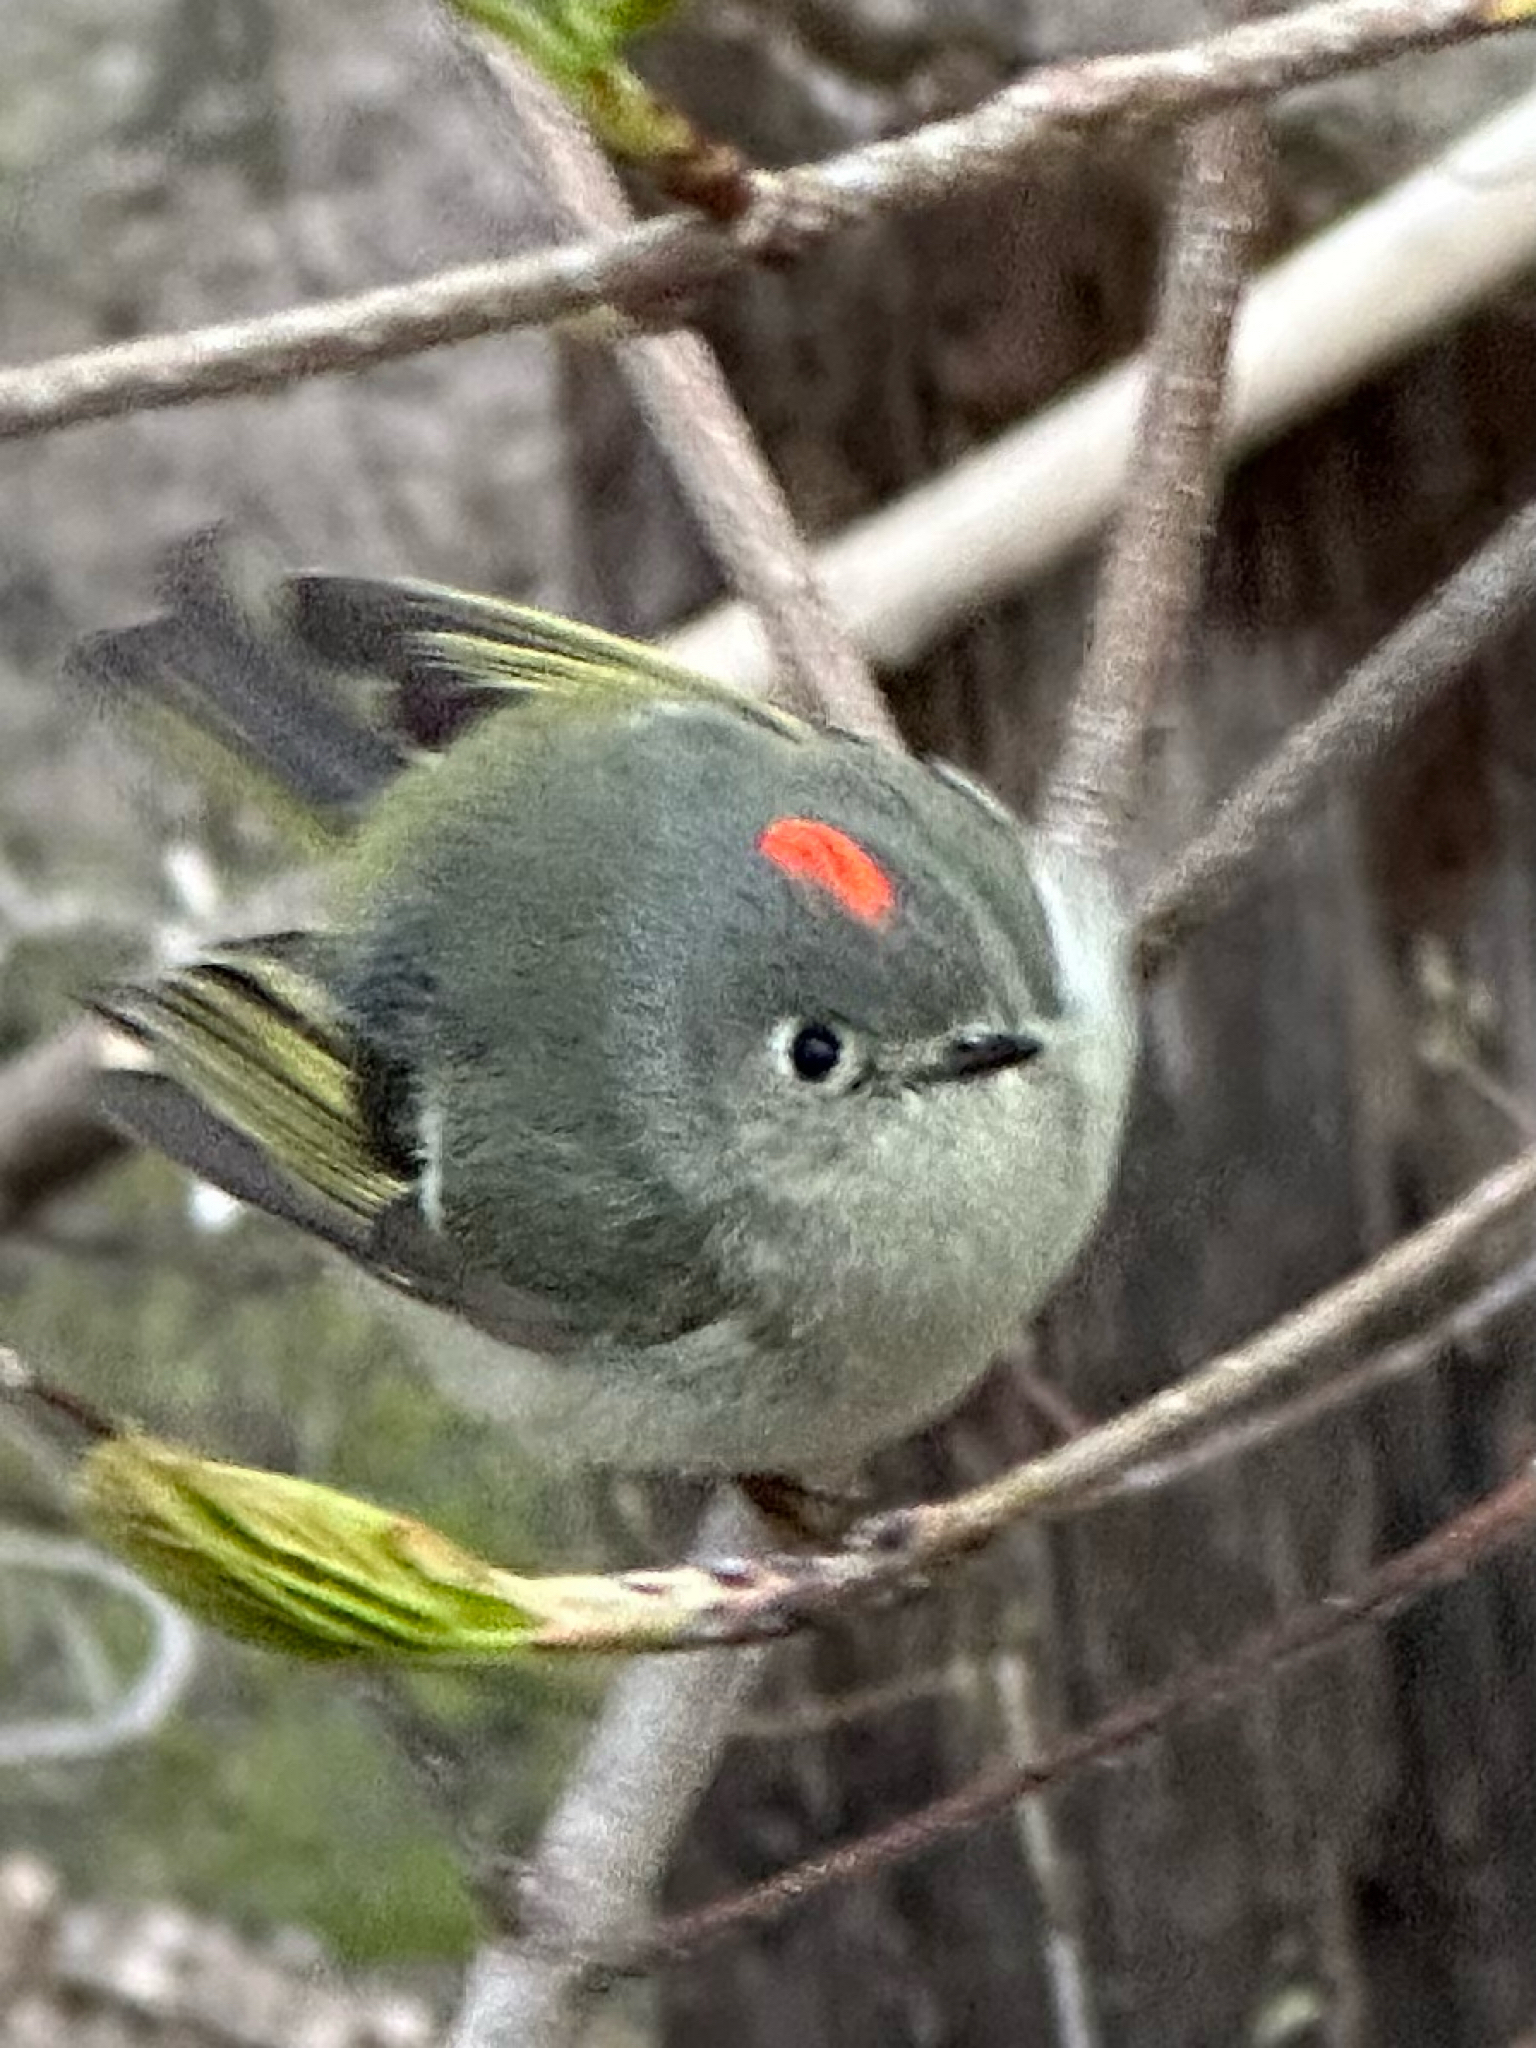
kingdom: Animalia
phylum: Chordata
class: Aves
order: Passeriformes
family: Regulidae
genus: Regulus
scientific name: Regulus calendula
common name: Ruby-crowned kinglet
